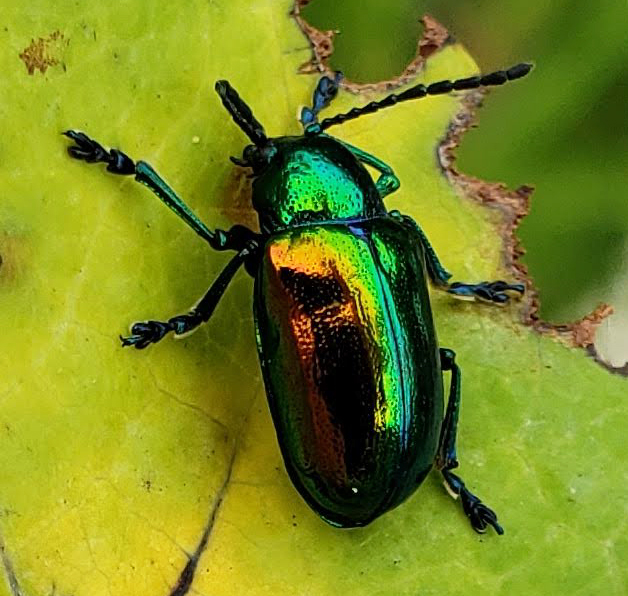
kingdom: Animalia
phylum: Arthropoda
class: Insecta
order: Coleoptera
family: Chrysomelidae
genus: Chrysochus
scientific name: Chrysochus auratus
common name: Dogbane leaf beetle
